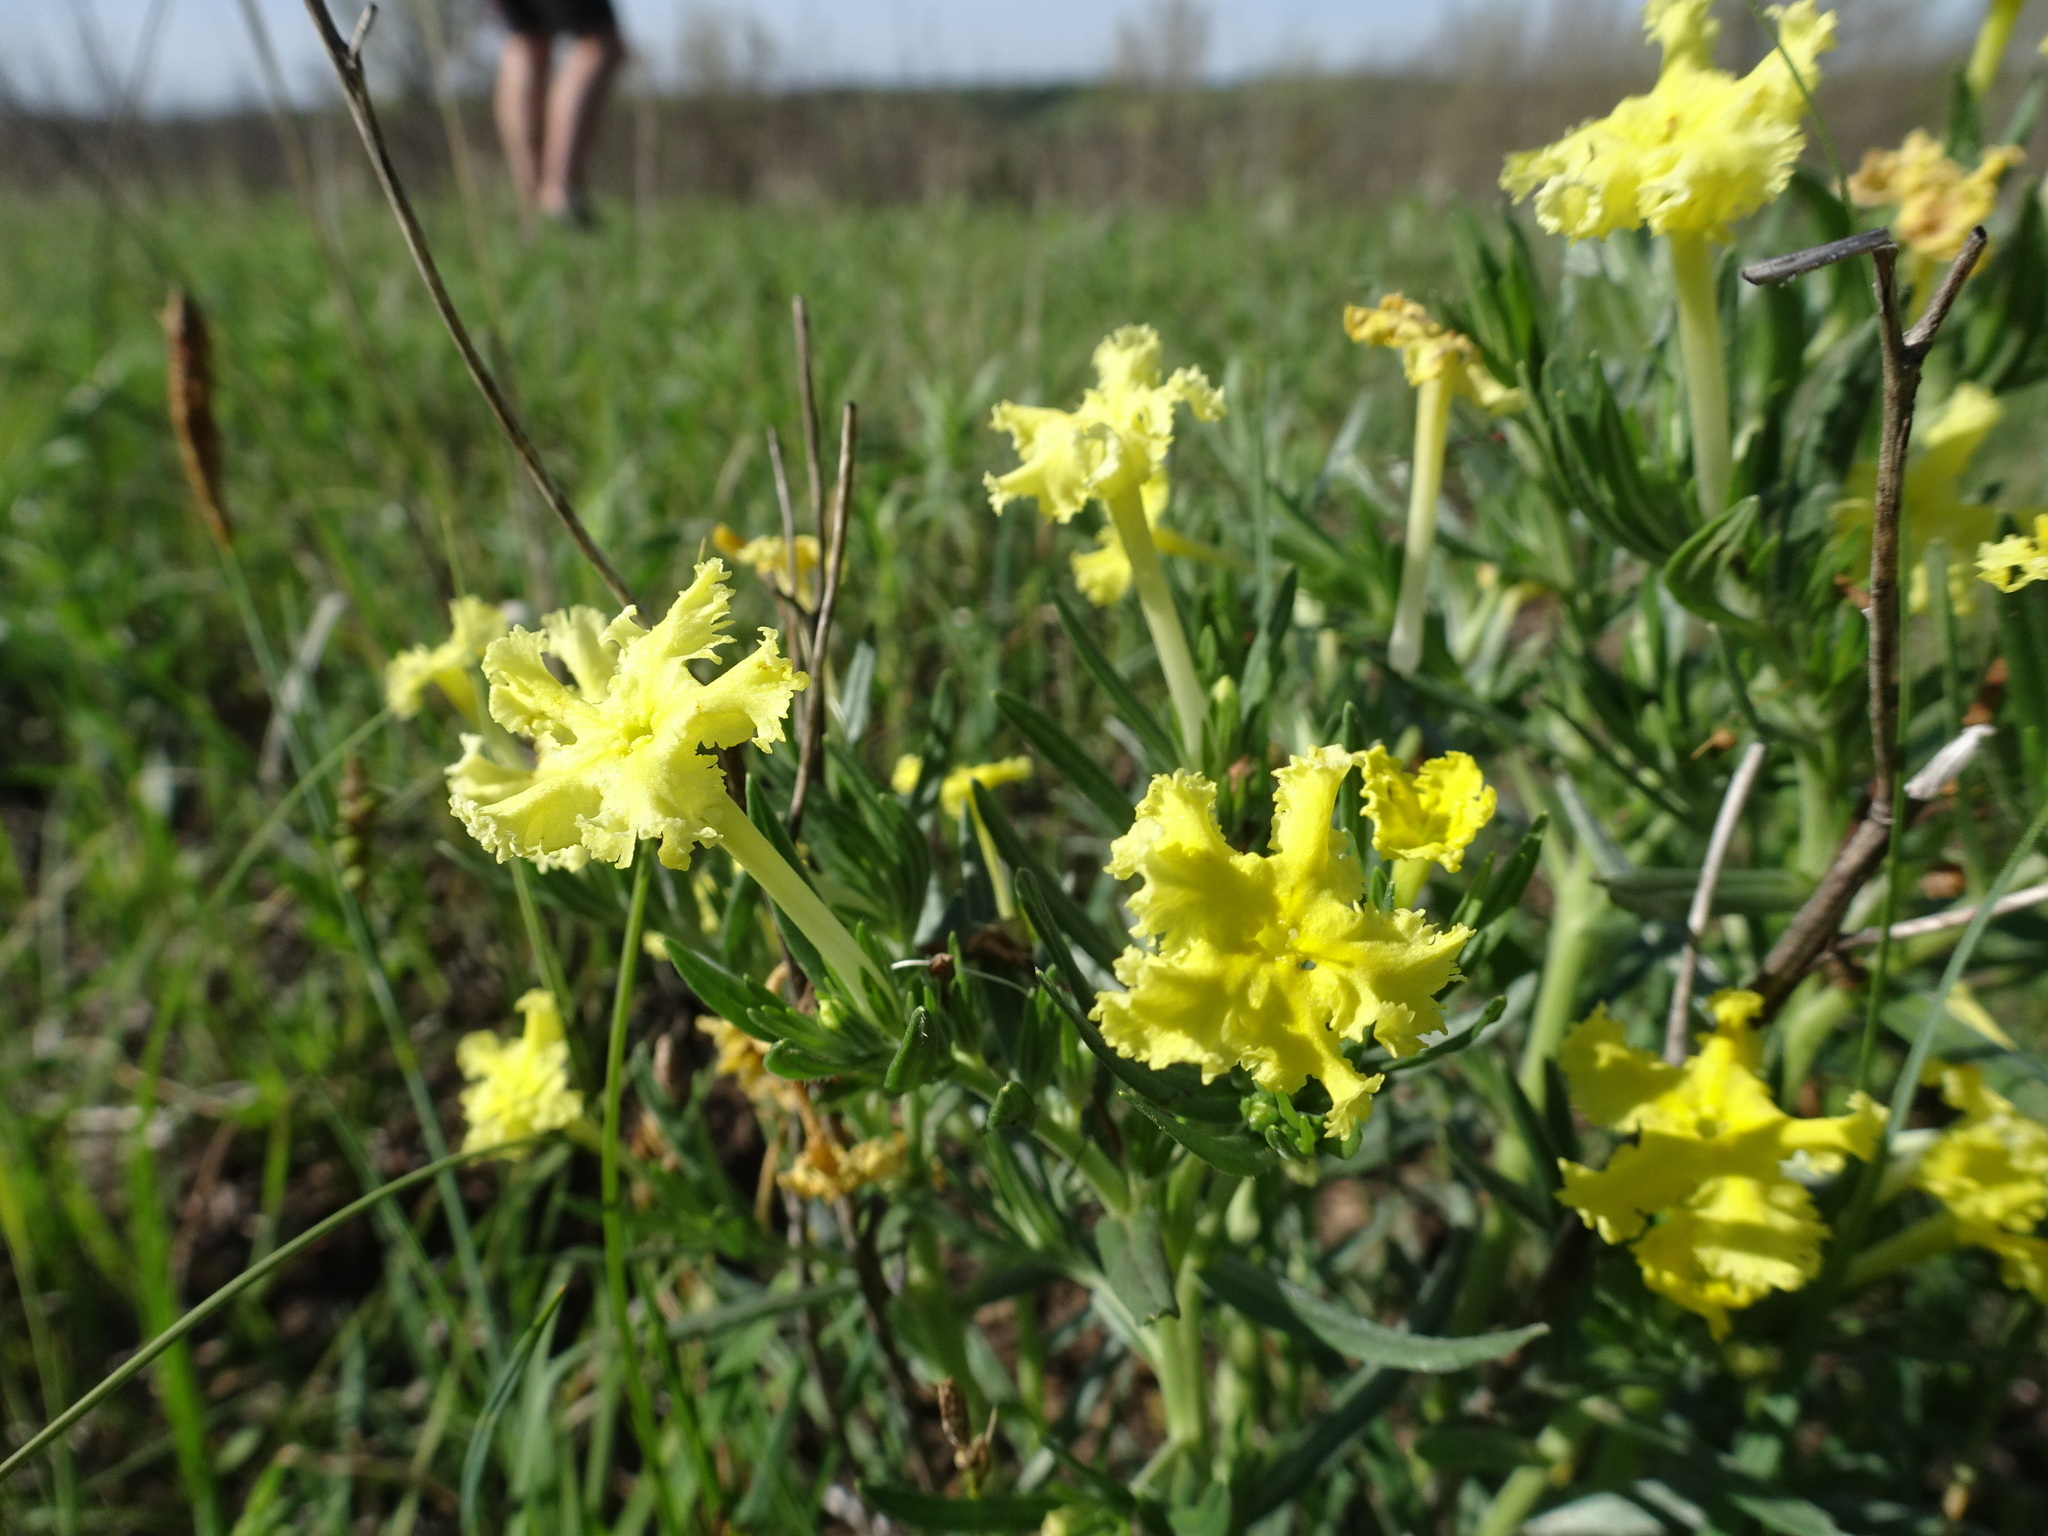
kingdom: Plantae
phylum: Tracheophyta
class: Magnoliopsida
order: Boraginales
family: Boraginaceae
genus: Lithospermum
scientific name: Lithospermum incisum
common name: Fringed gromwell
